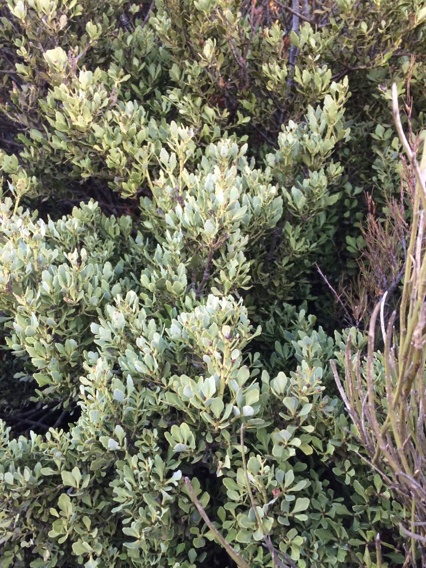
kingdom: Plantae
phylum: Tracheophyta
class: Pinopsida
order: Pinales
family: Phyllocladaceae
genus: Phyllocladus
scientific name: Phyllocladus trichomanoides
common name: Celery pine
